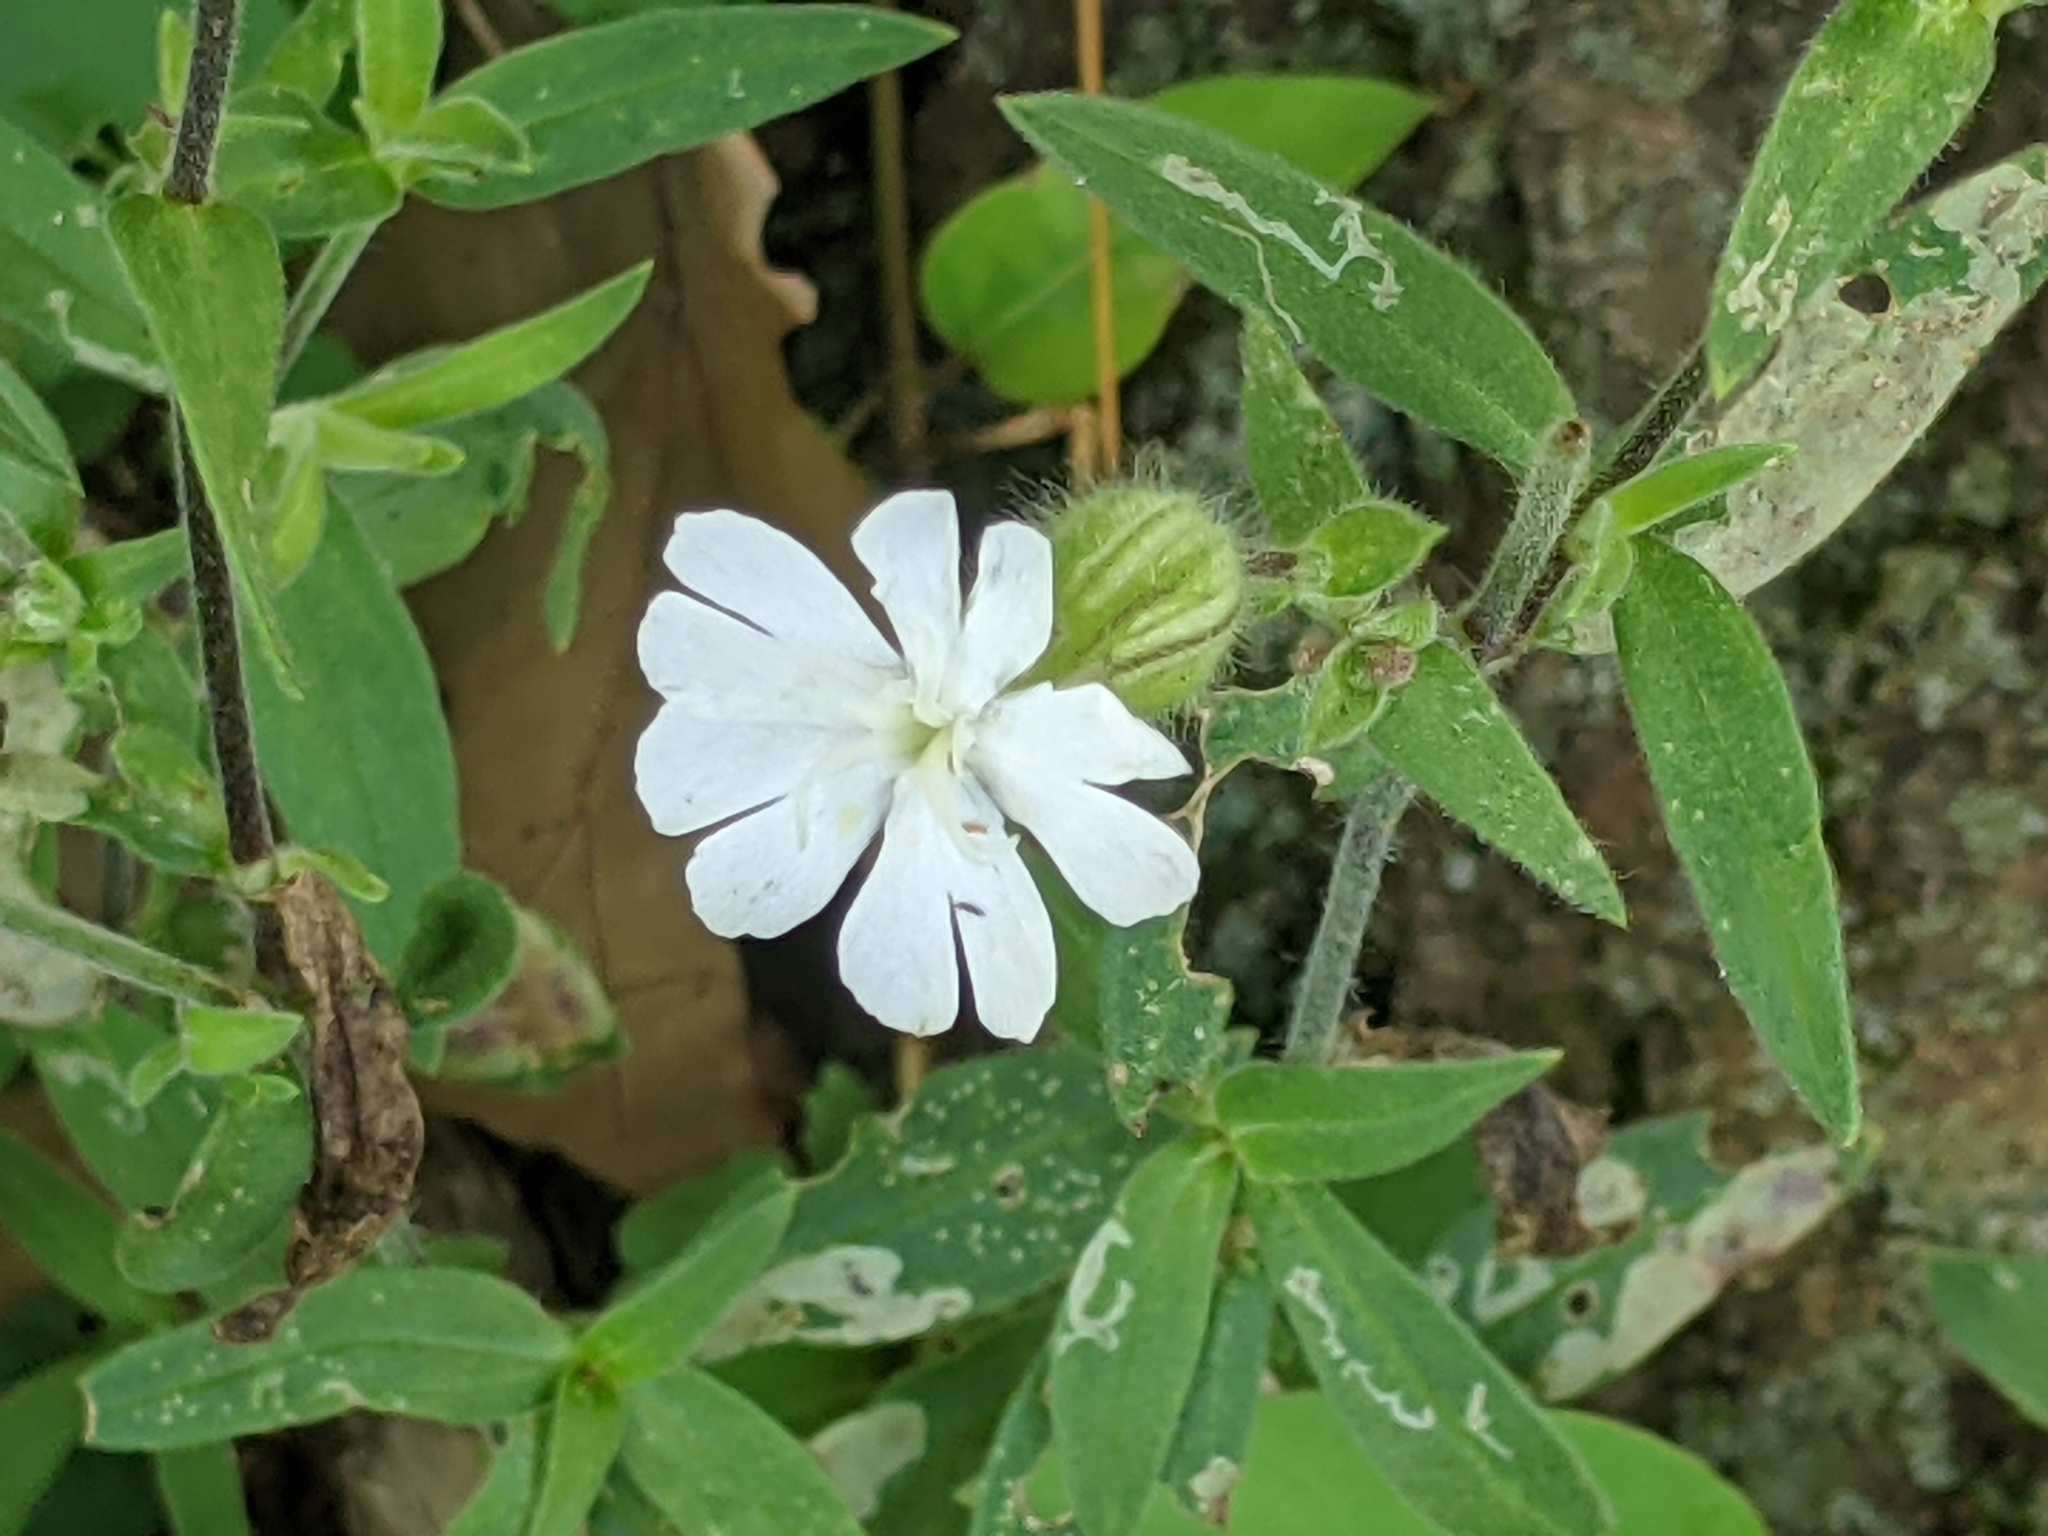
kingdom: Plantae
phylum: Tracheophyta
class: Magnoliopsida
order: Caryophyllales
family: Caryophyllaceae
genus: Silene
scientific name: Silene latifolia
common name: White campion
